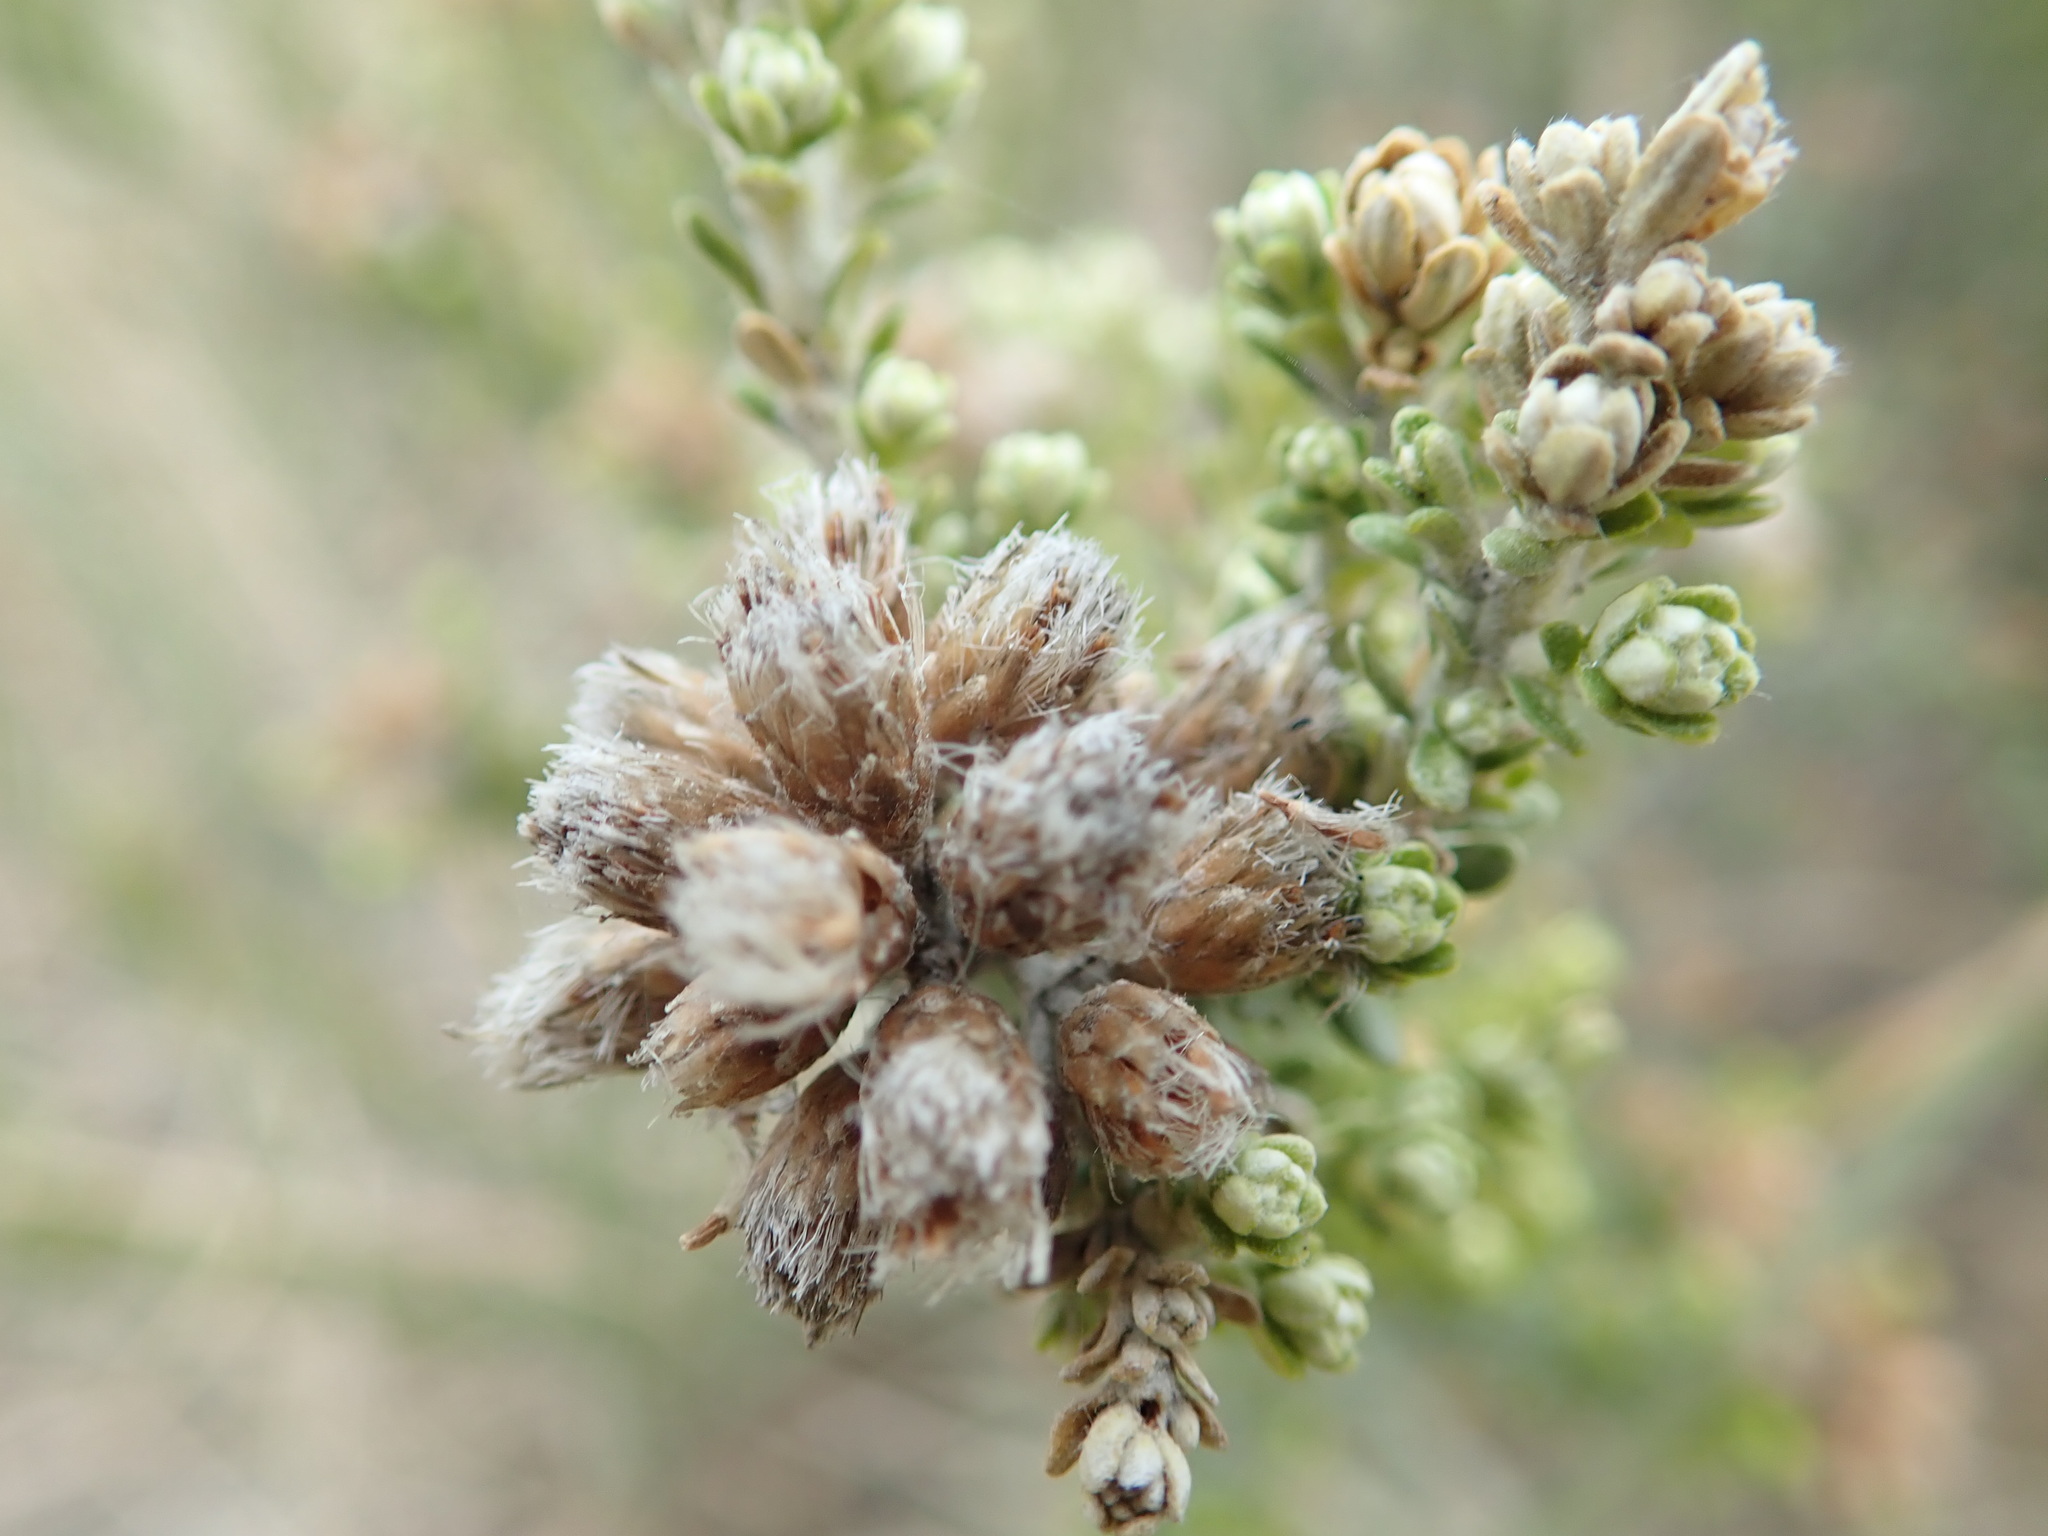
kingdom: Plantae
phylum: Tracheophyta
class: Magnoliopsida
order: Asterales
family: Asteraceae
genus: Ozothamnus
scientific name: Ozothamnus leptophyllus
